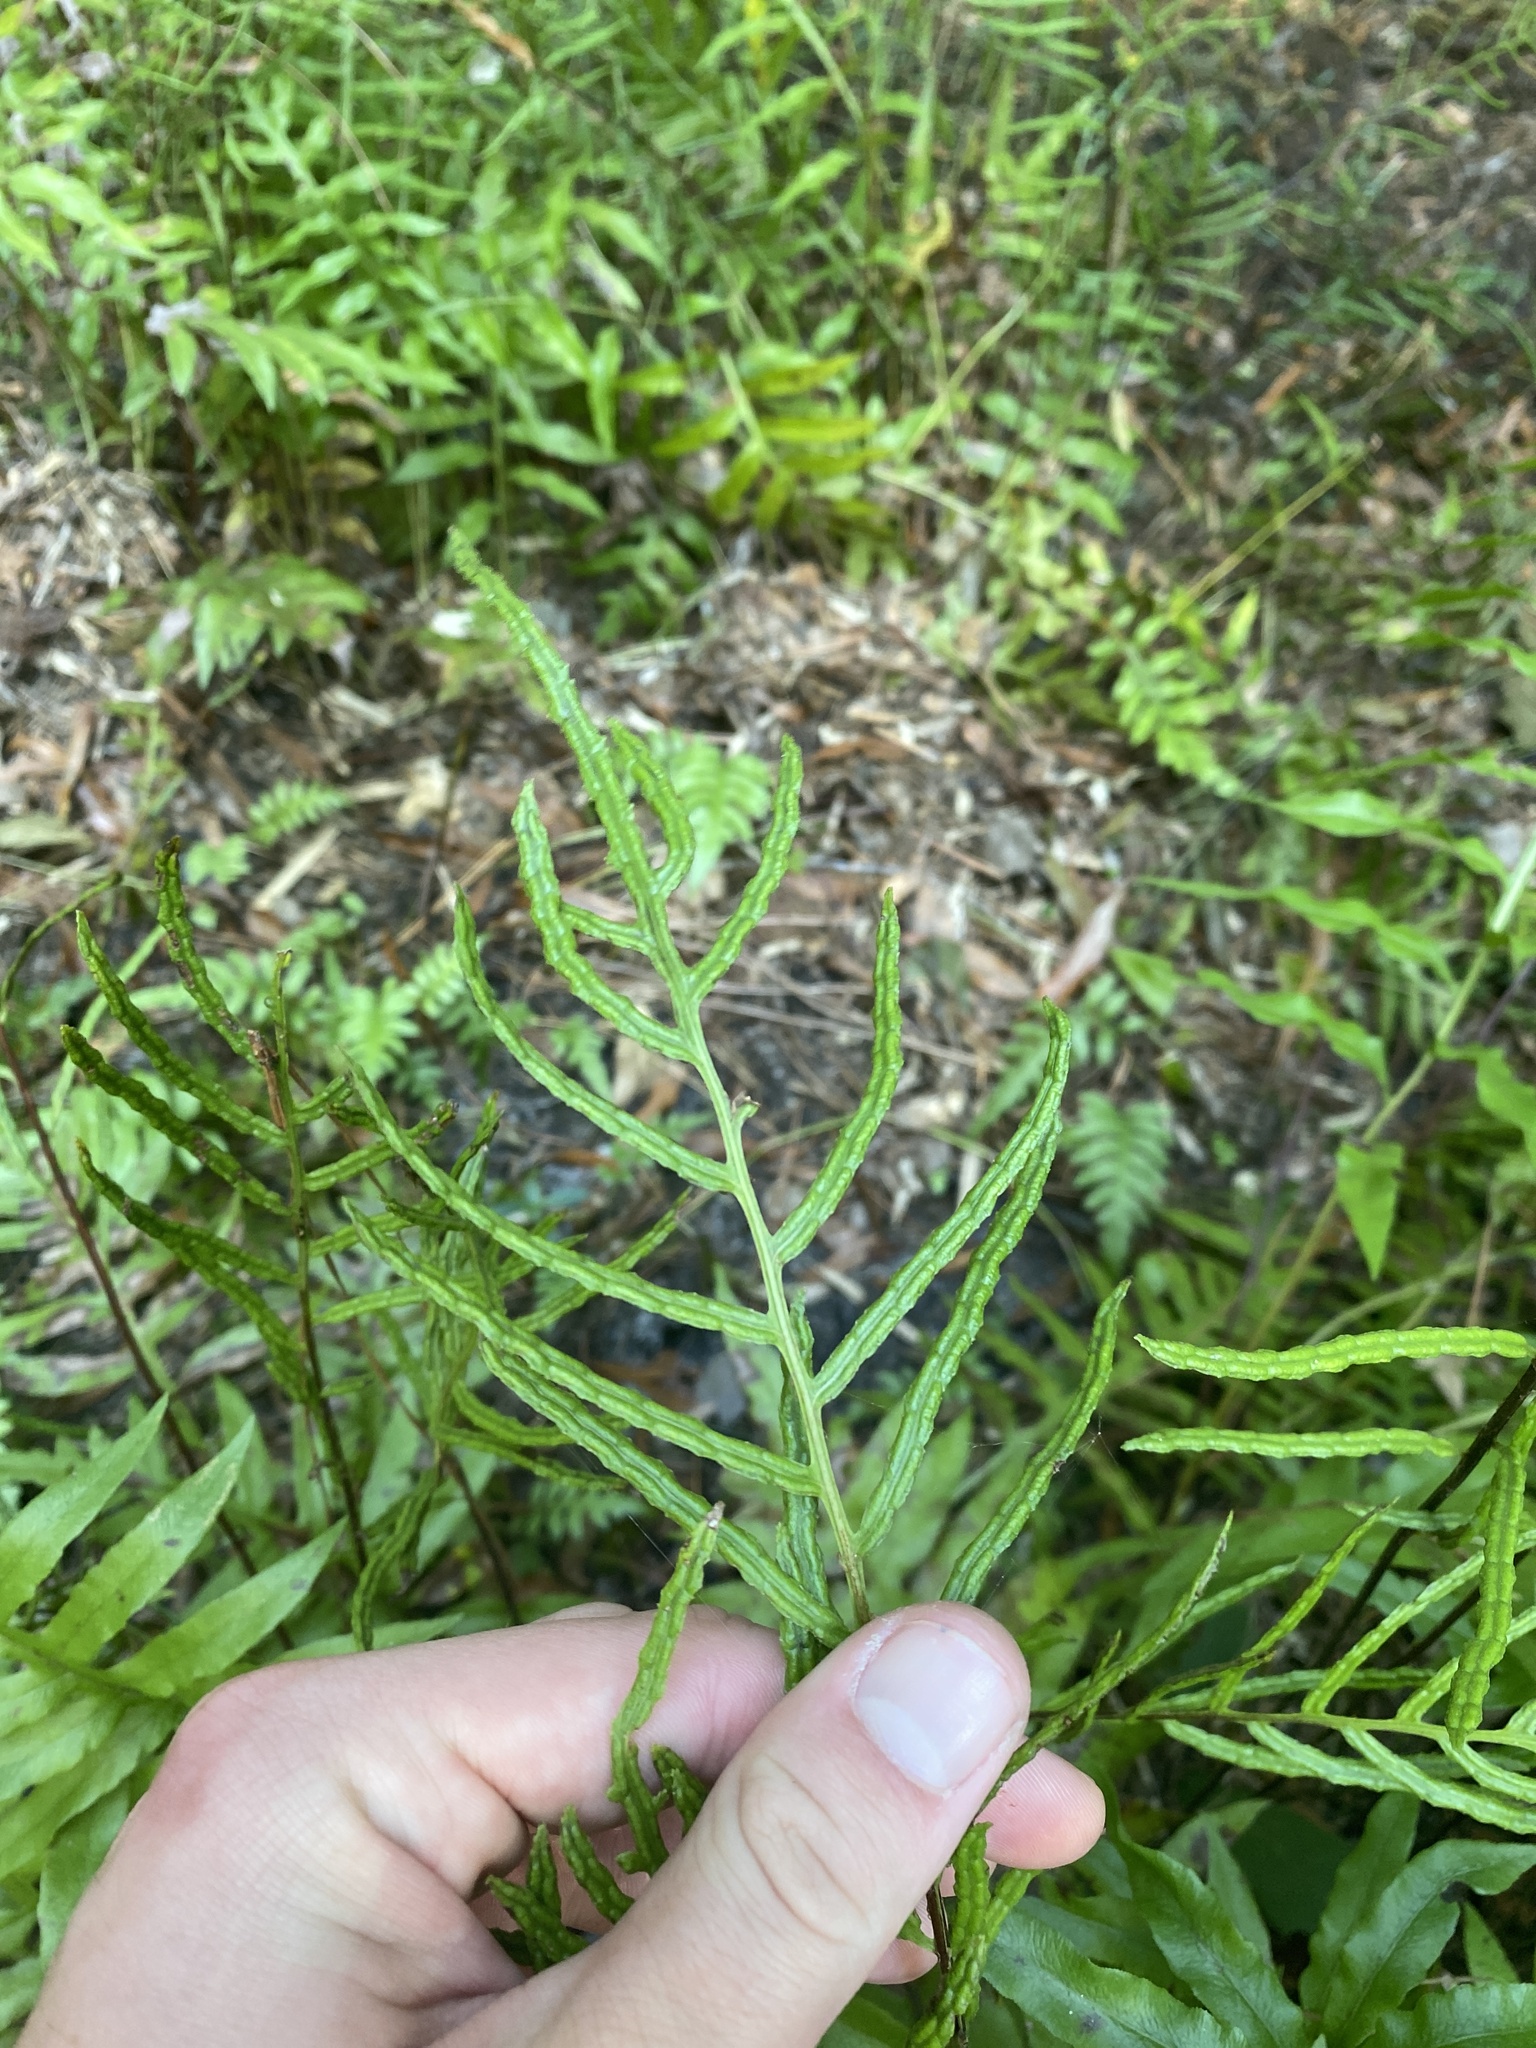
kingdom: Plantae
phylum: Tracheophyta
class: Polypodiopsida
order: Polypodiales
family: Blechnaceae
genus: Lorinseria
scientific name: Lorinseria areolata
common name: Dwarf chain fern
